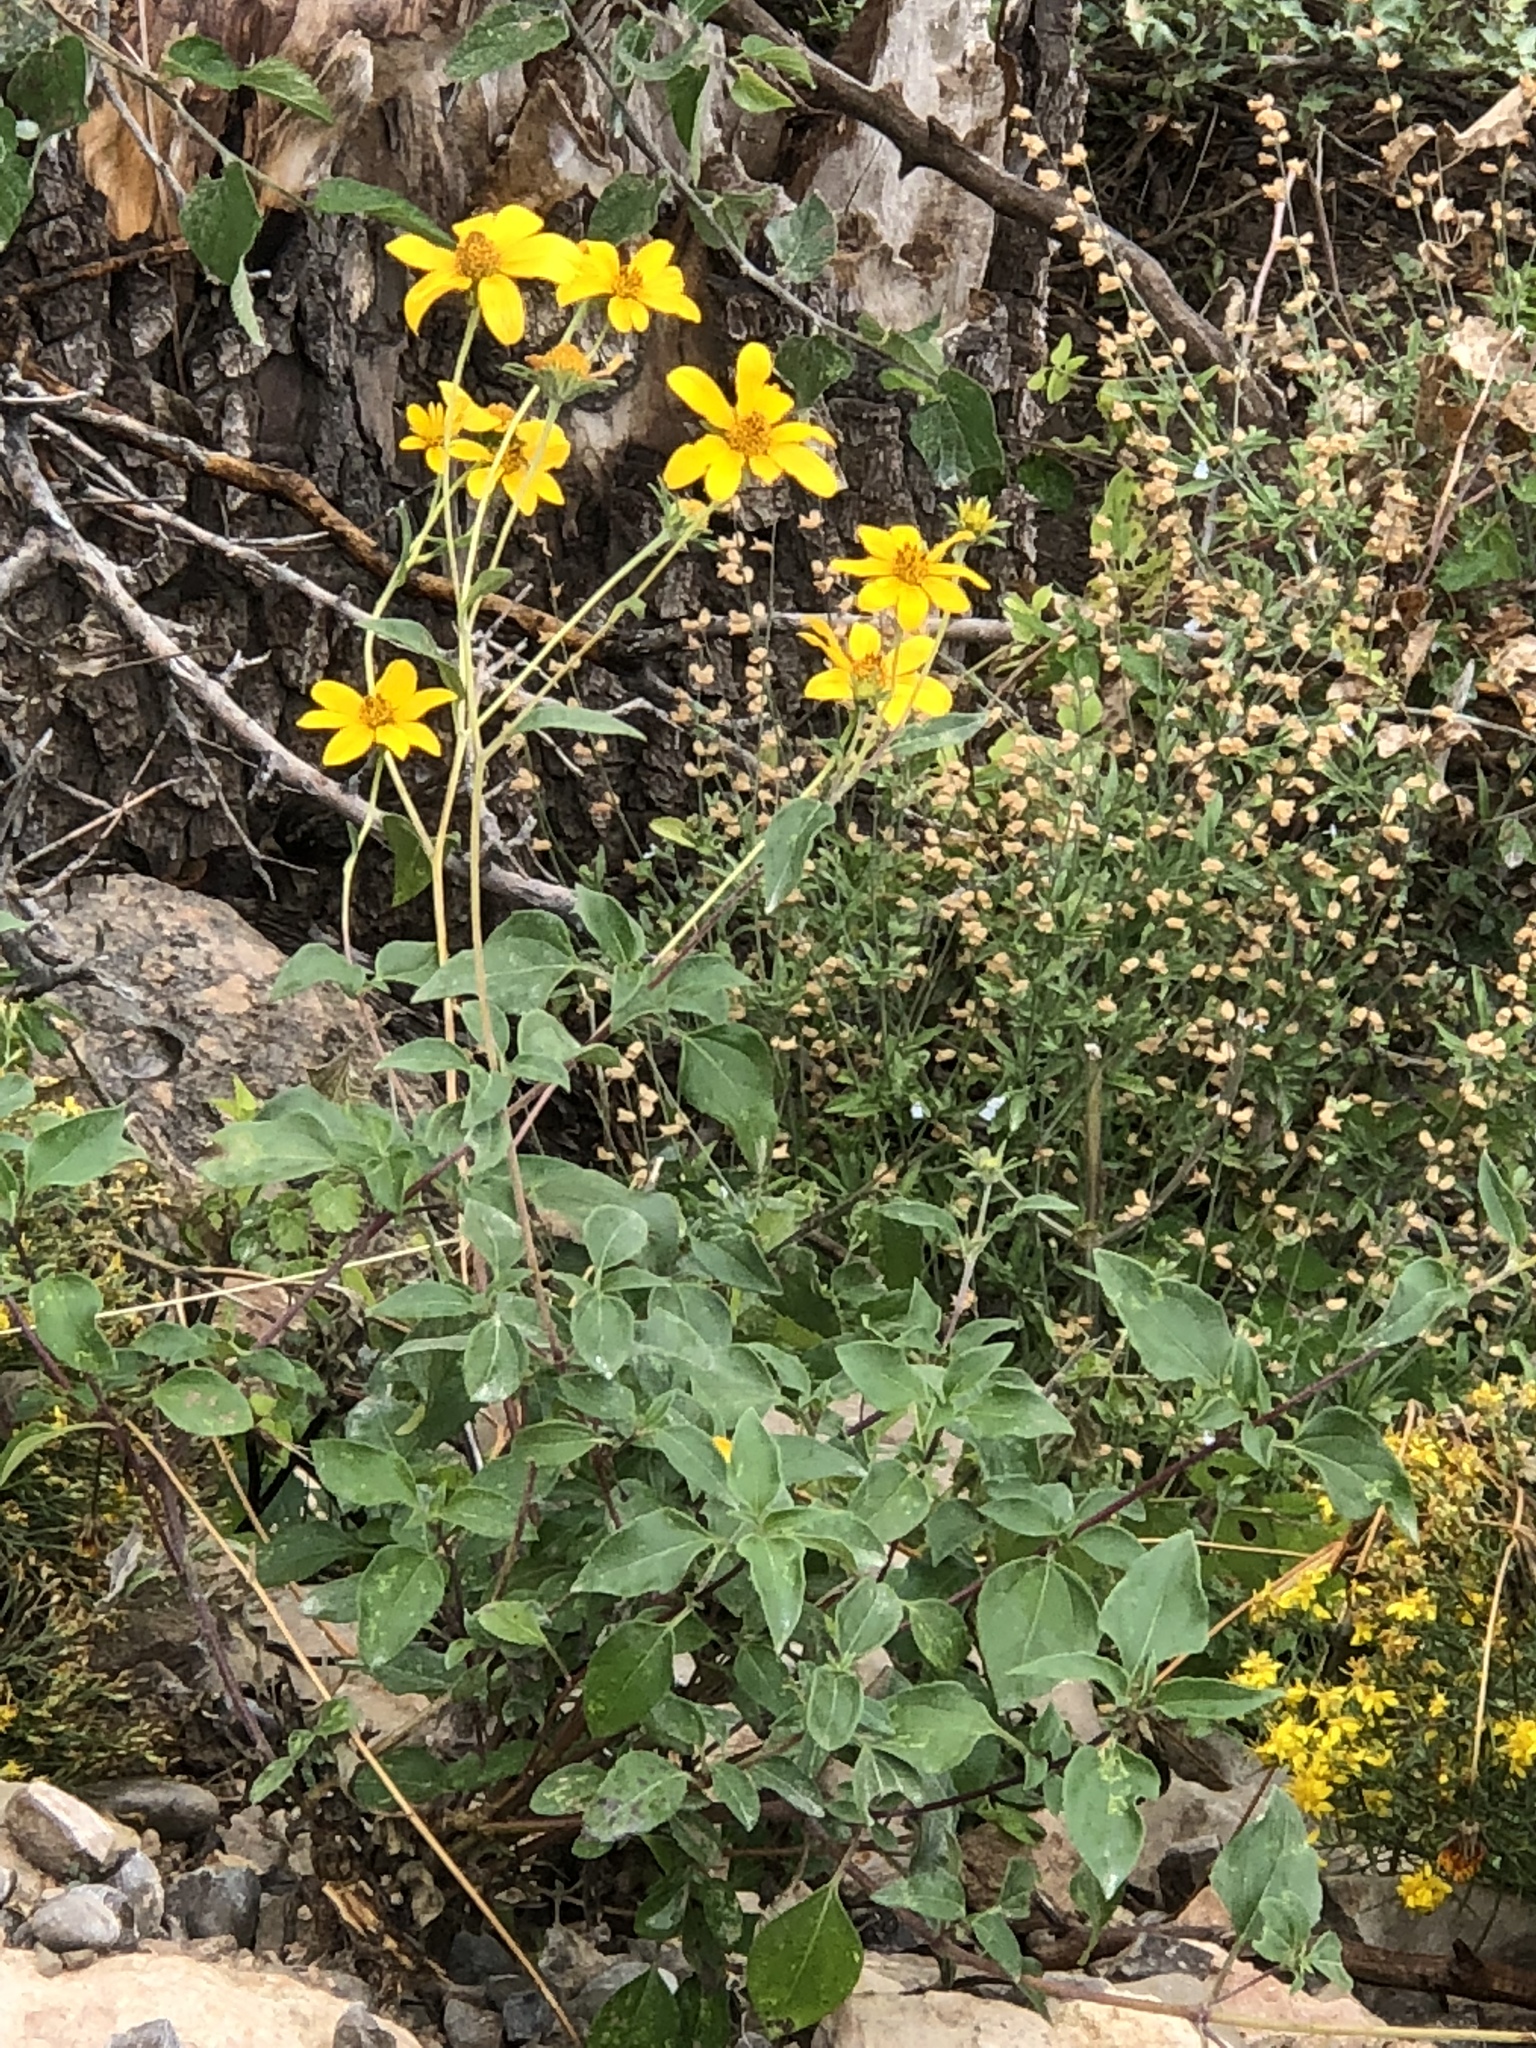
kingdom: Plantae
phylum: Tracheophyta
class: Magnoliopsida
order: Asterales
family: Asteraceae
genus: Viguiera
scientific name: Viguiera dentata
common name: Toothleaf
